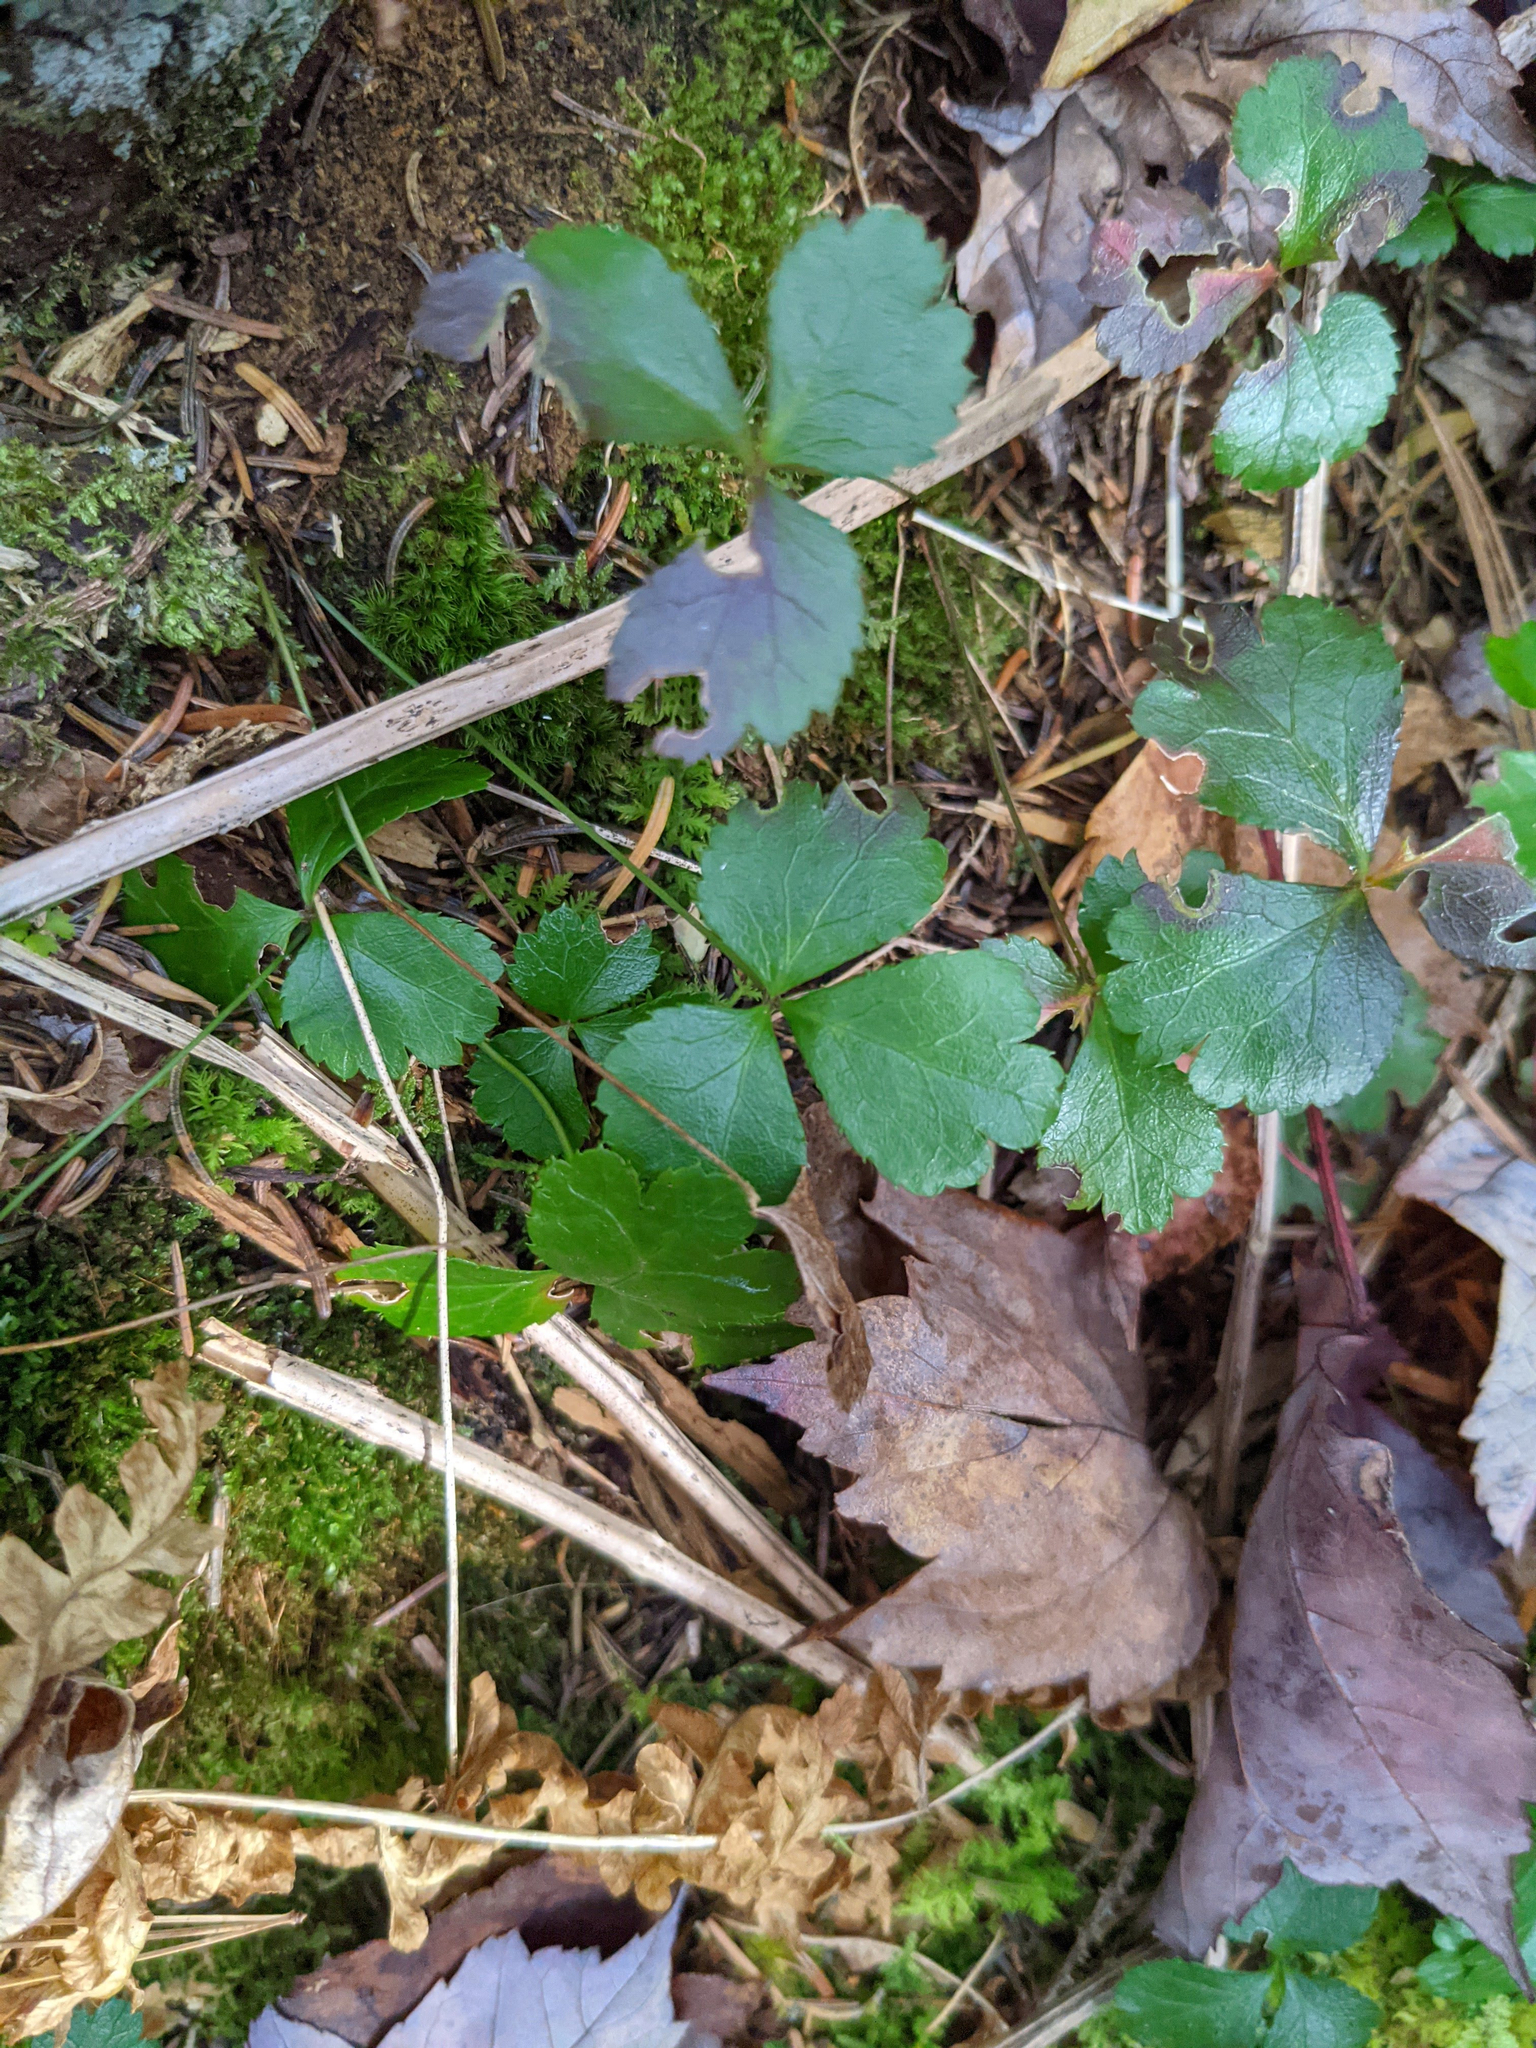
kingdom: Plantae
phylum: Tracheophyta
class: Magnoliopsida
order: Ranunculales
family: Ranunculaceae
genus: Coptis
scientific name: Coptis trifolia
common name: Canker-root
